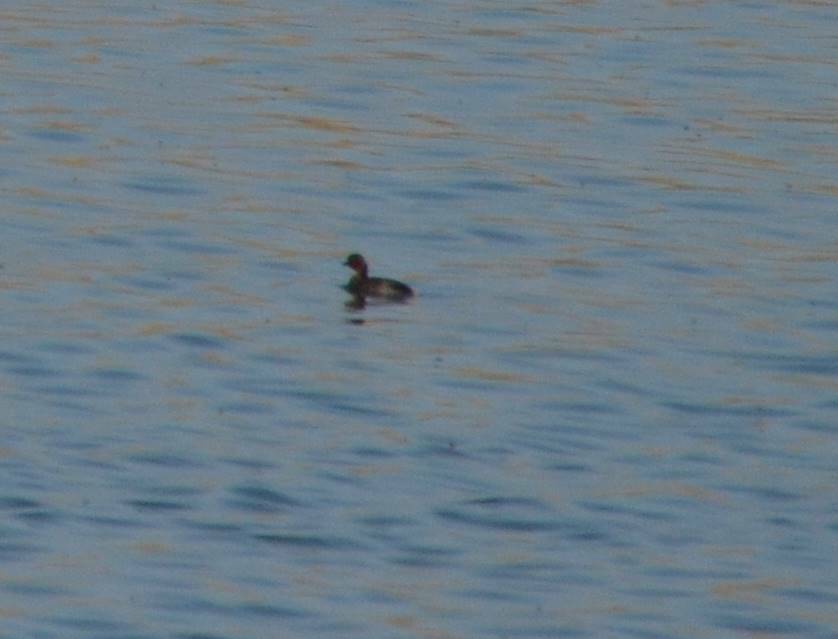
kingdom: Animalia
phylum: Chordata
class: Aves
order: Podicipediformes
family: Podicipedidae
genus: Tachybaptus
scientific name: Tachybaptus ruficollis
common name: Little grebe
